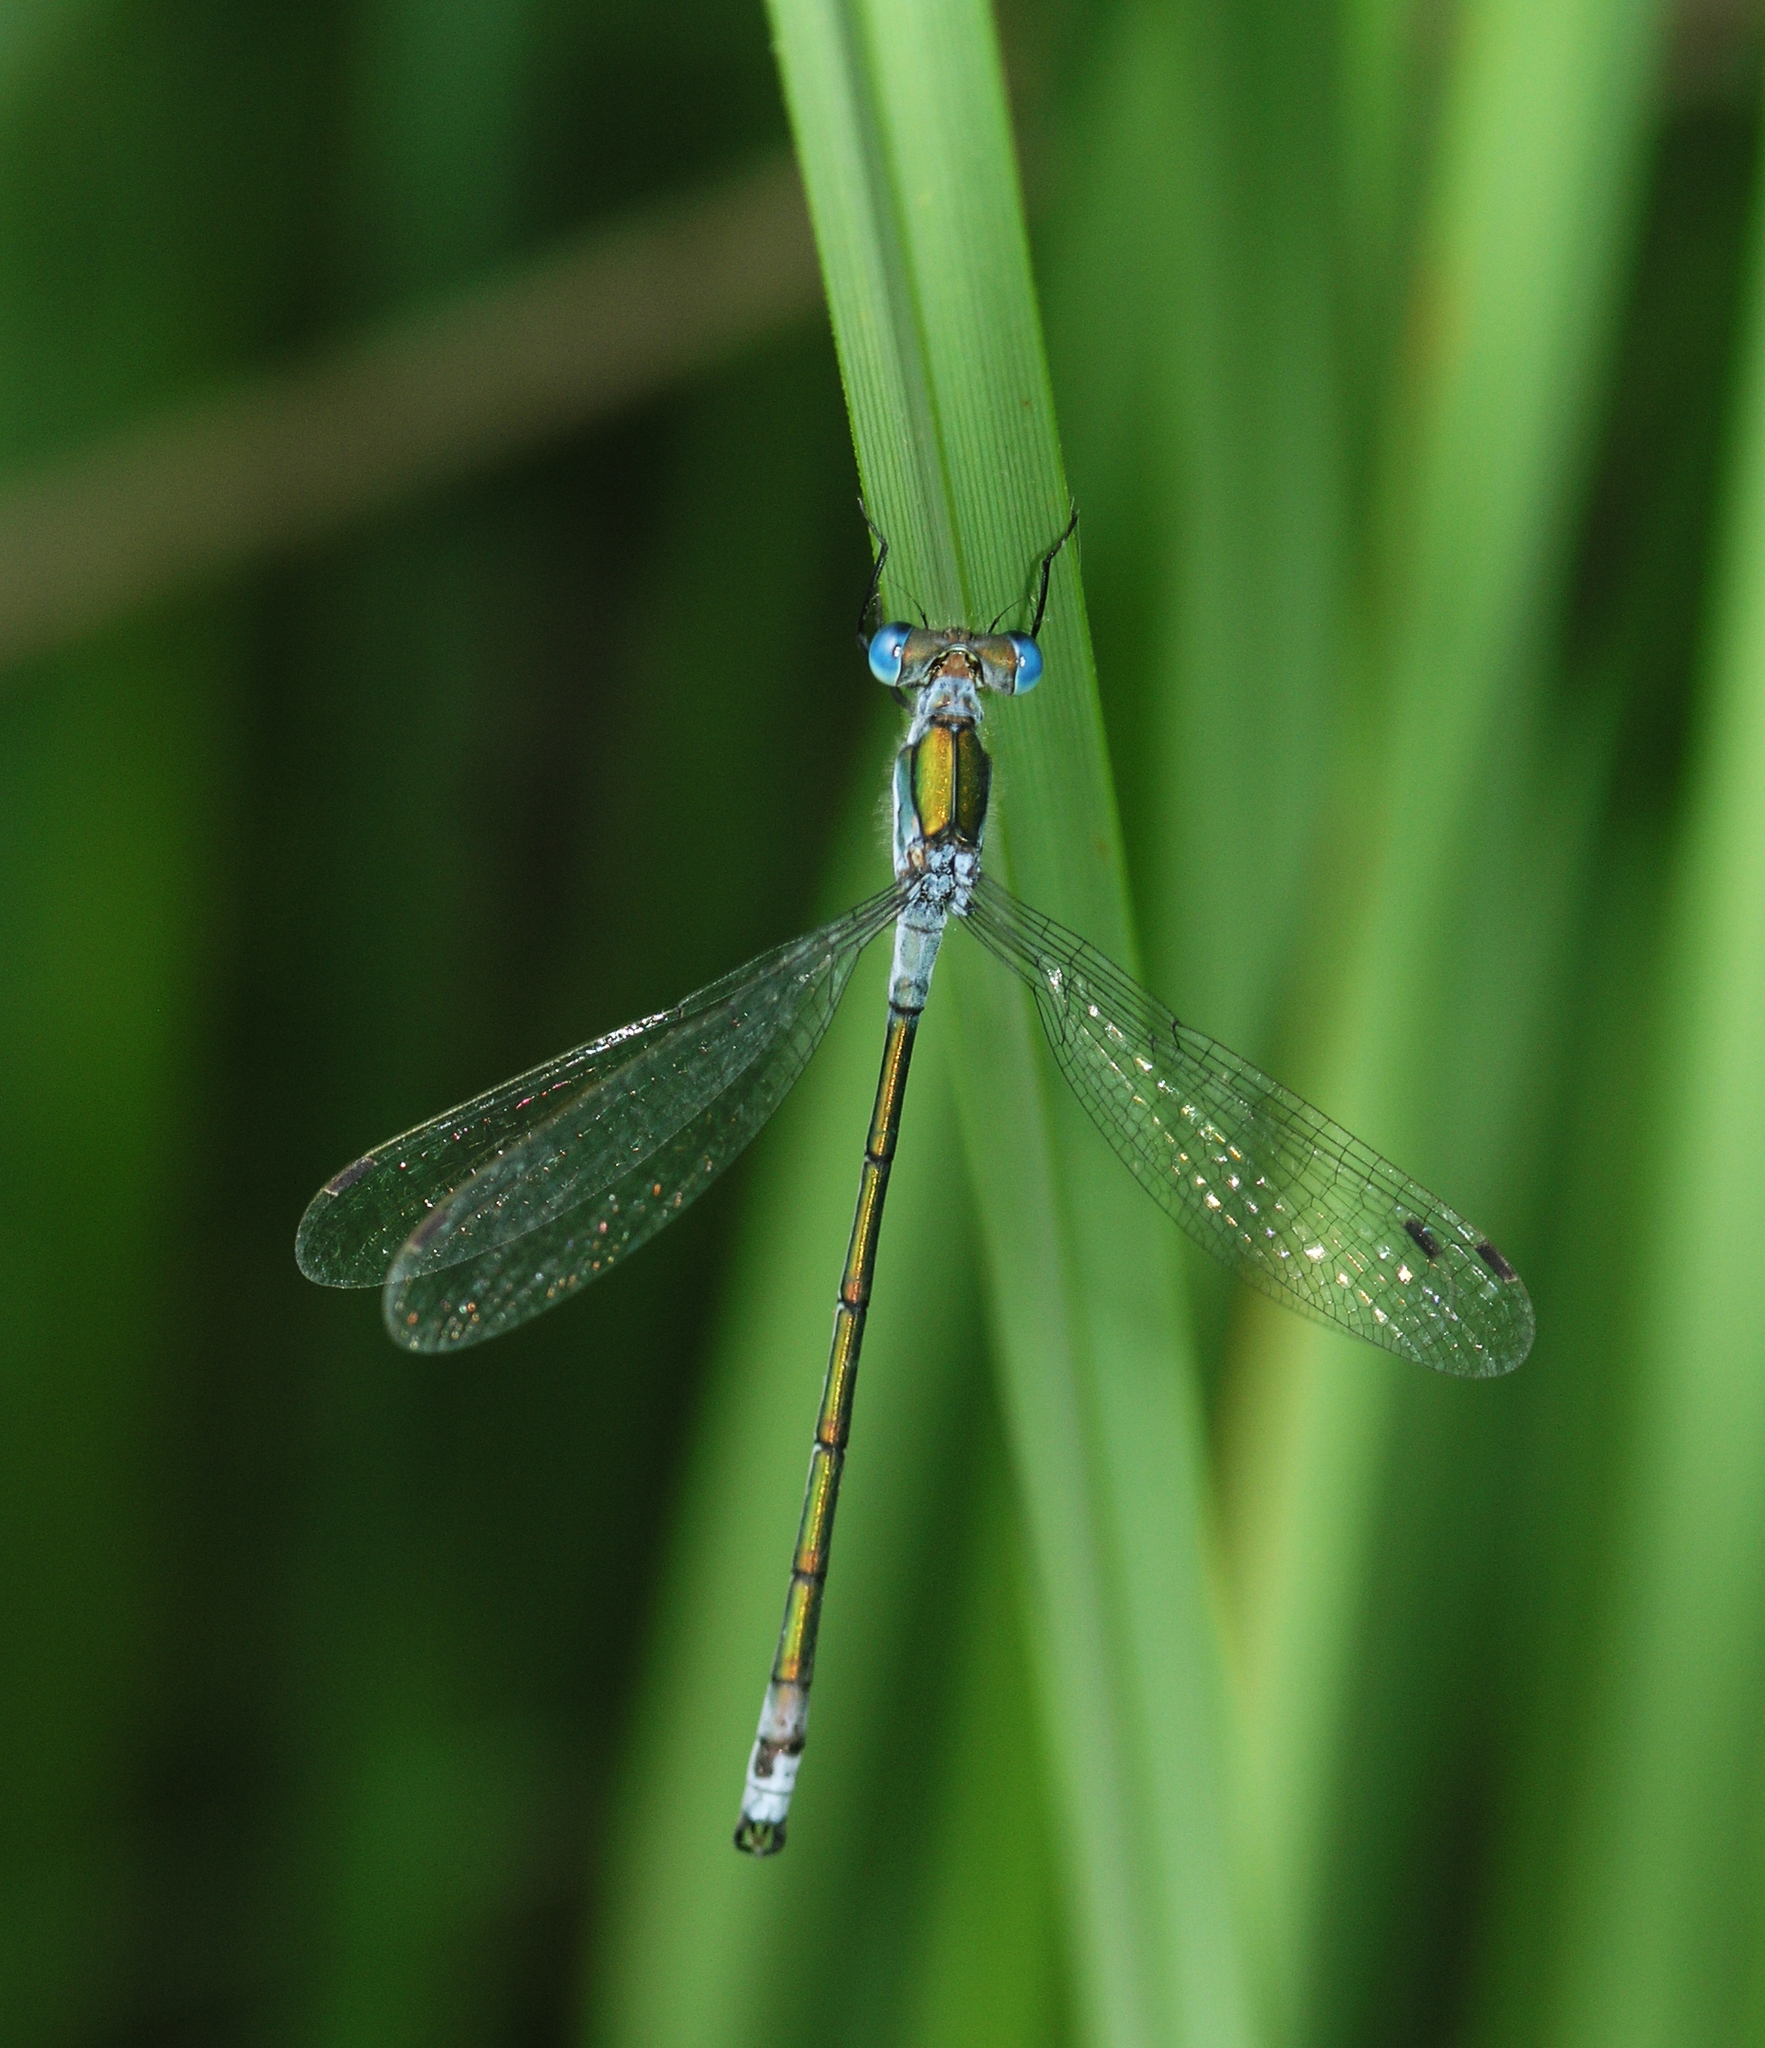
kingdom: Animalia
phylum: Arthropoda
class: Insecta
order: Odonata
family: Lestidae
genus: Lestes
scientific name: Lestes sponsa
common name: Common spreadwing
